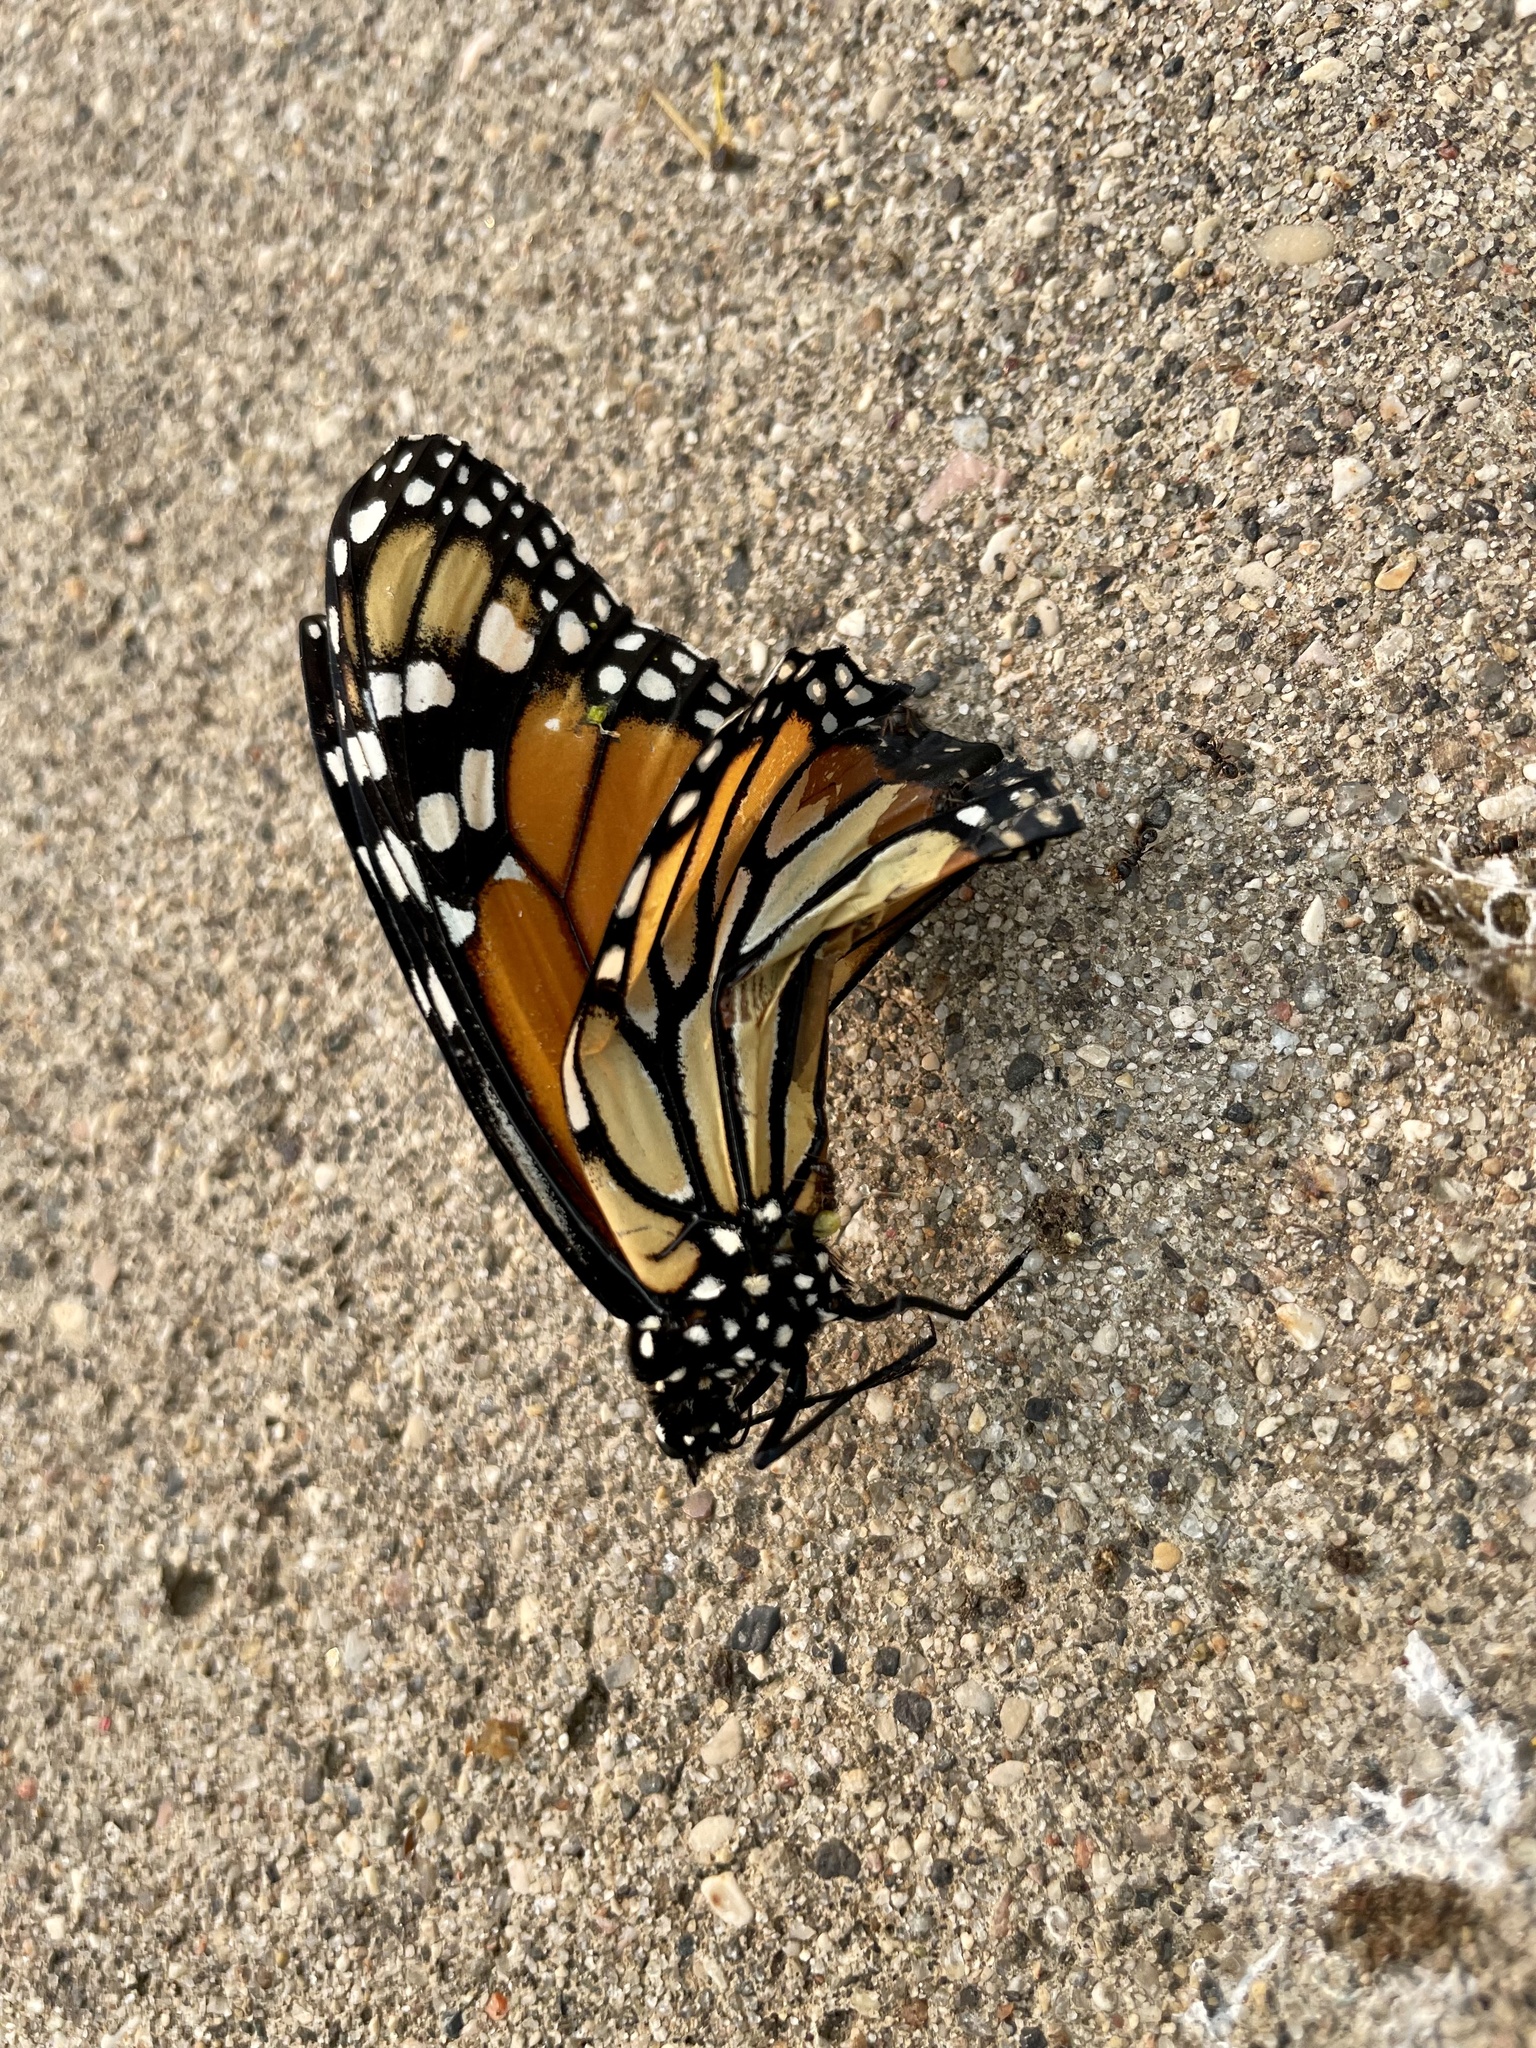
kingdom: Animalia
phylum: Arthropoda
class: Insecta
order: Lepidoptera
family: Nymphalidae
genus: Danaus
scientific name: Danaus plexippus
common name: Monarch
